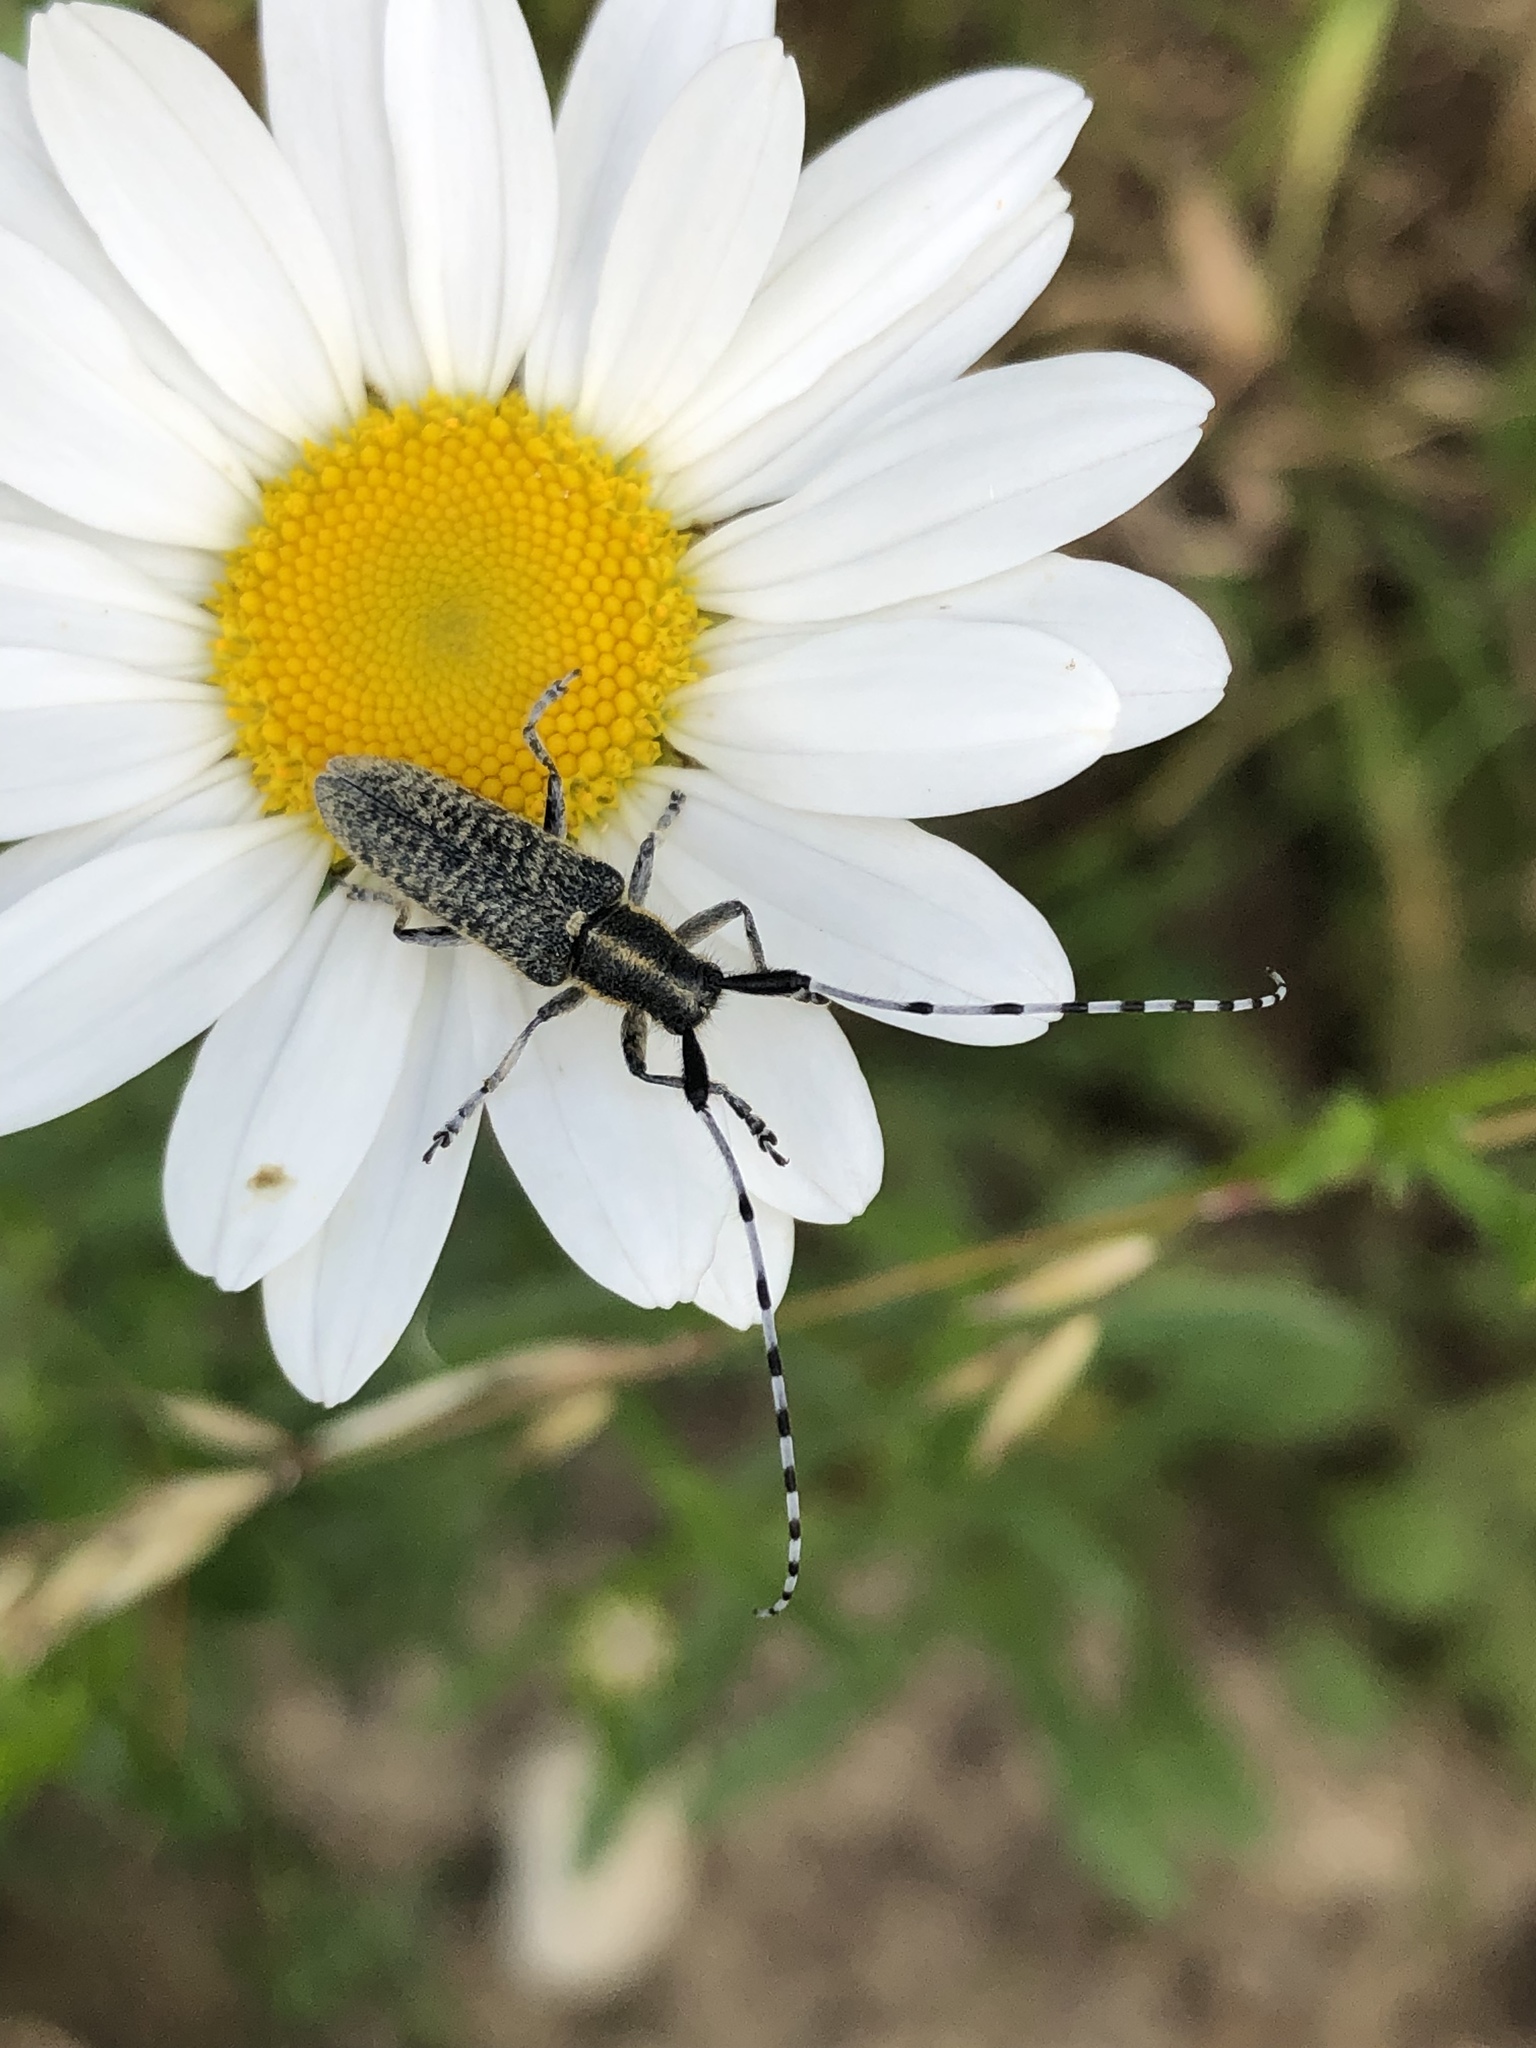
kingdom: Animalia
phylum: Arthropoda
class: Insecta
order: Coleoptera
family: Cerambycidae
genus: Agapanthia
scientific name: Agapanthia villosoviridescens
